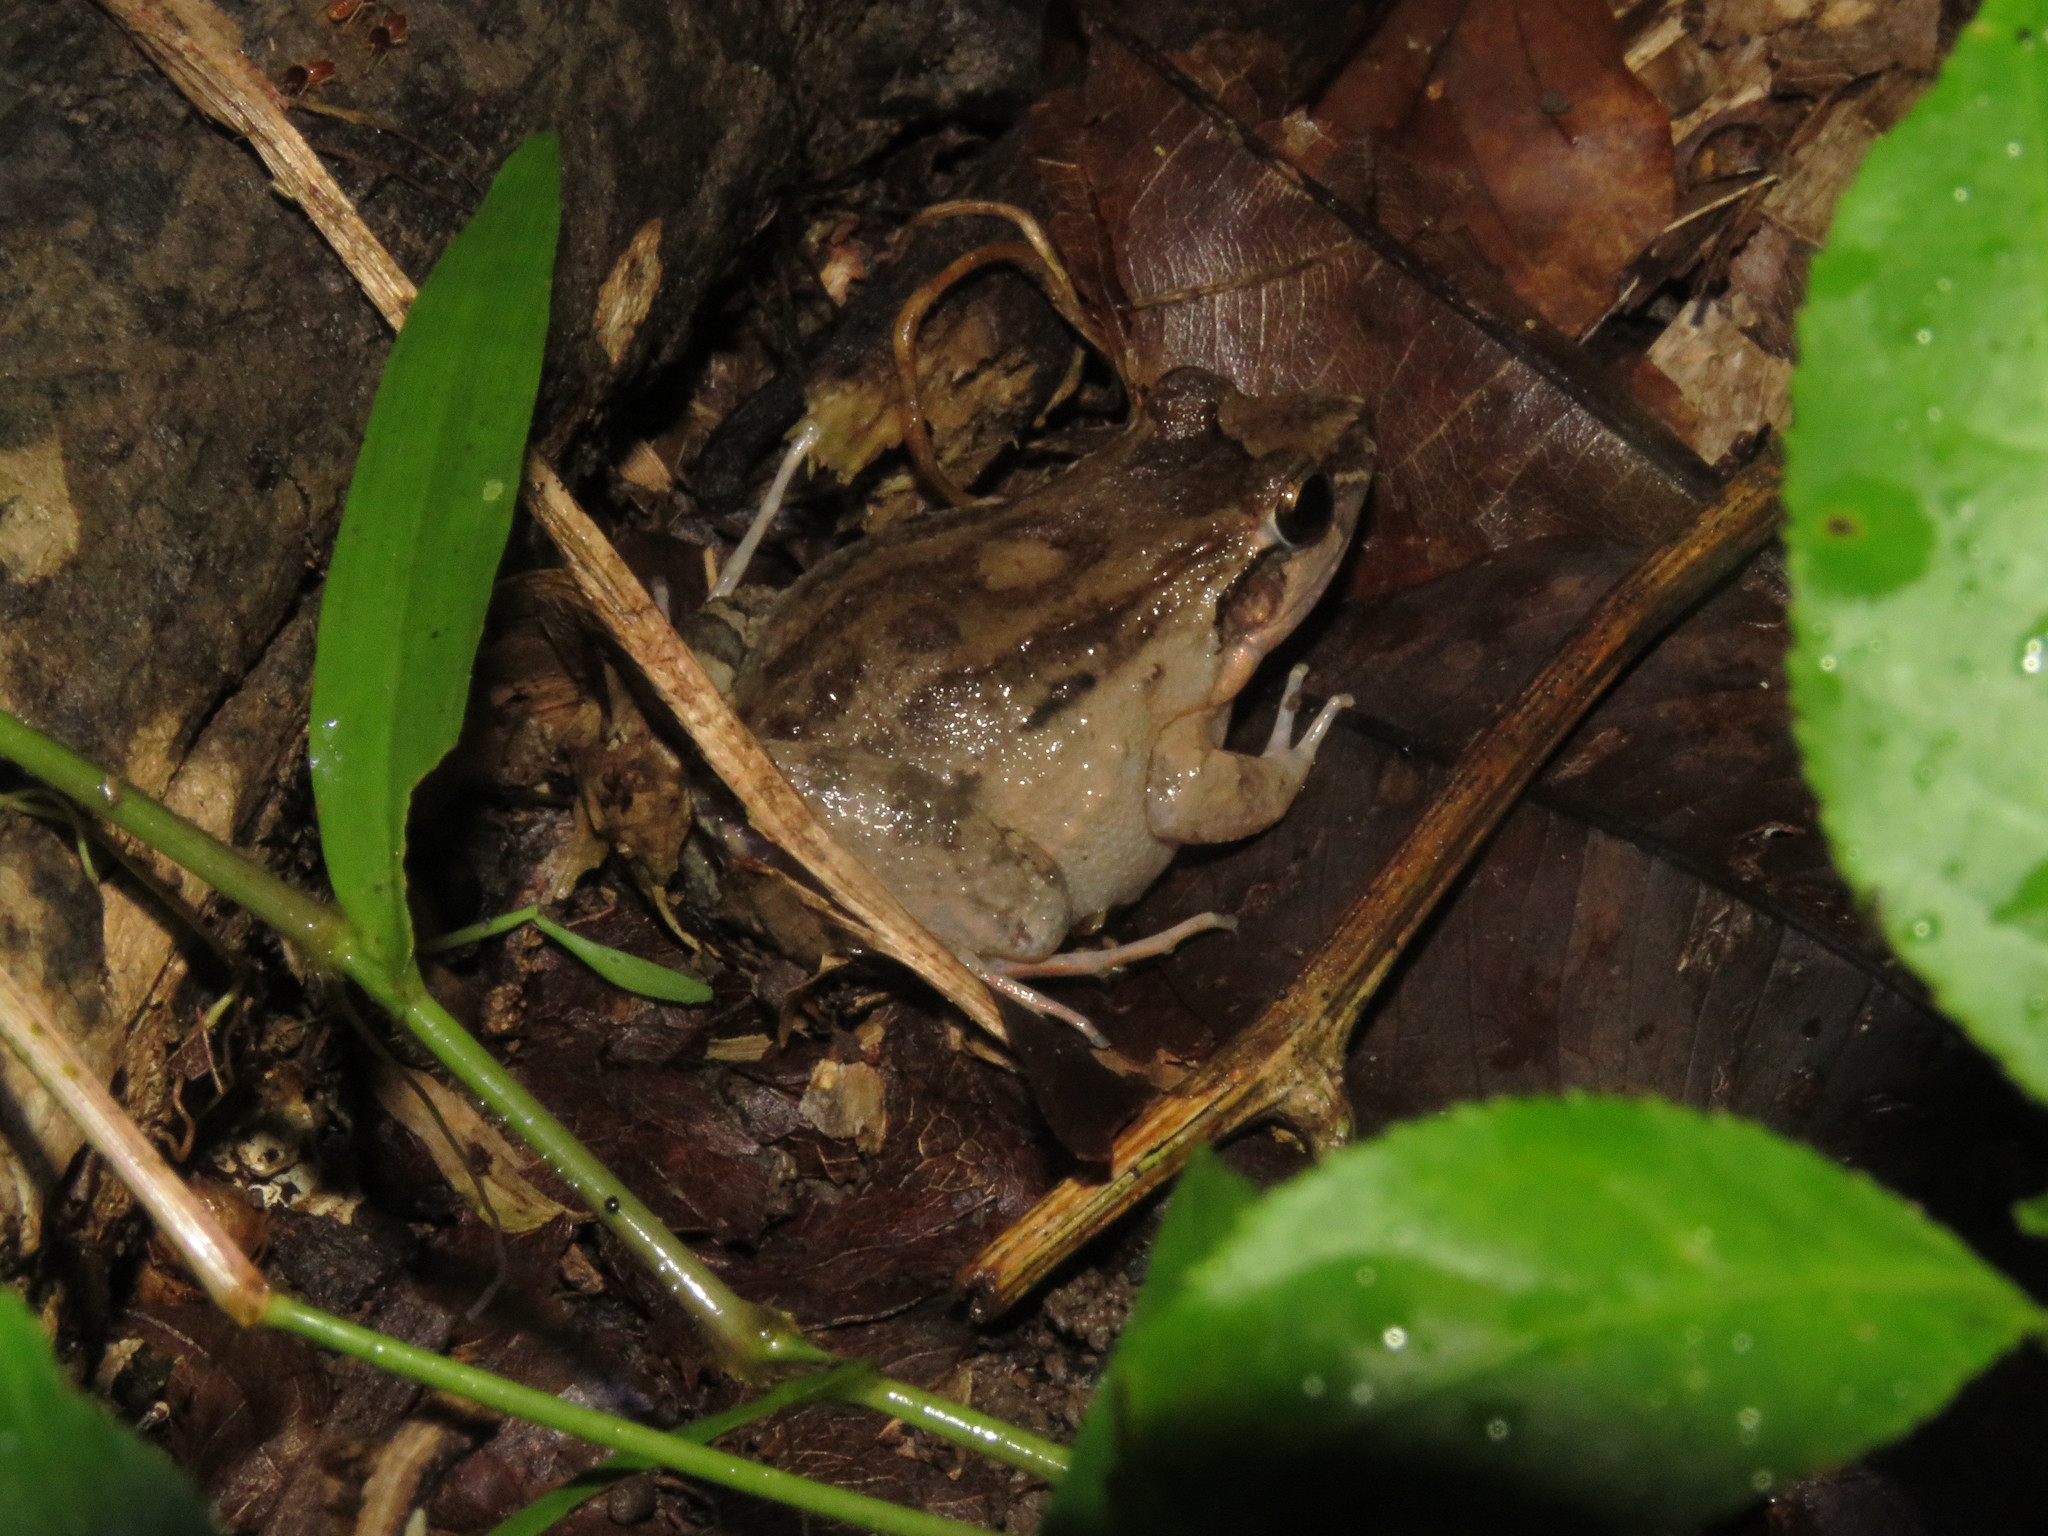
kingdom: Animalia
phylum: Chordata
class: Amphibia
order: Anura
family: Leptodactylidae
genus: Leptodactylus
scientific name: Leptodactylus leptodactyloides
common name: Common thin-toed frog
